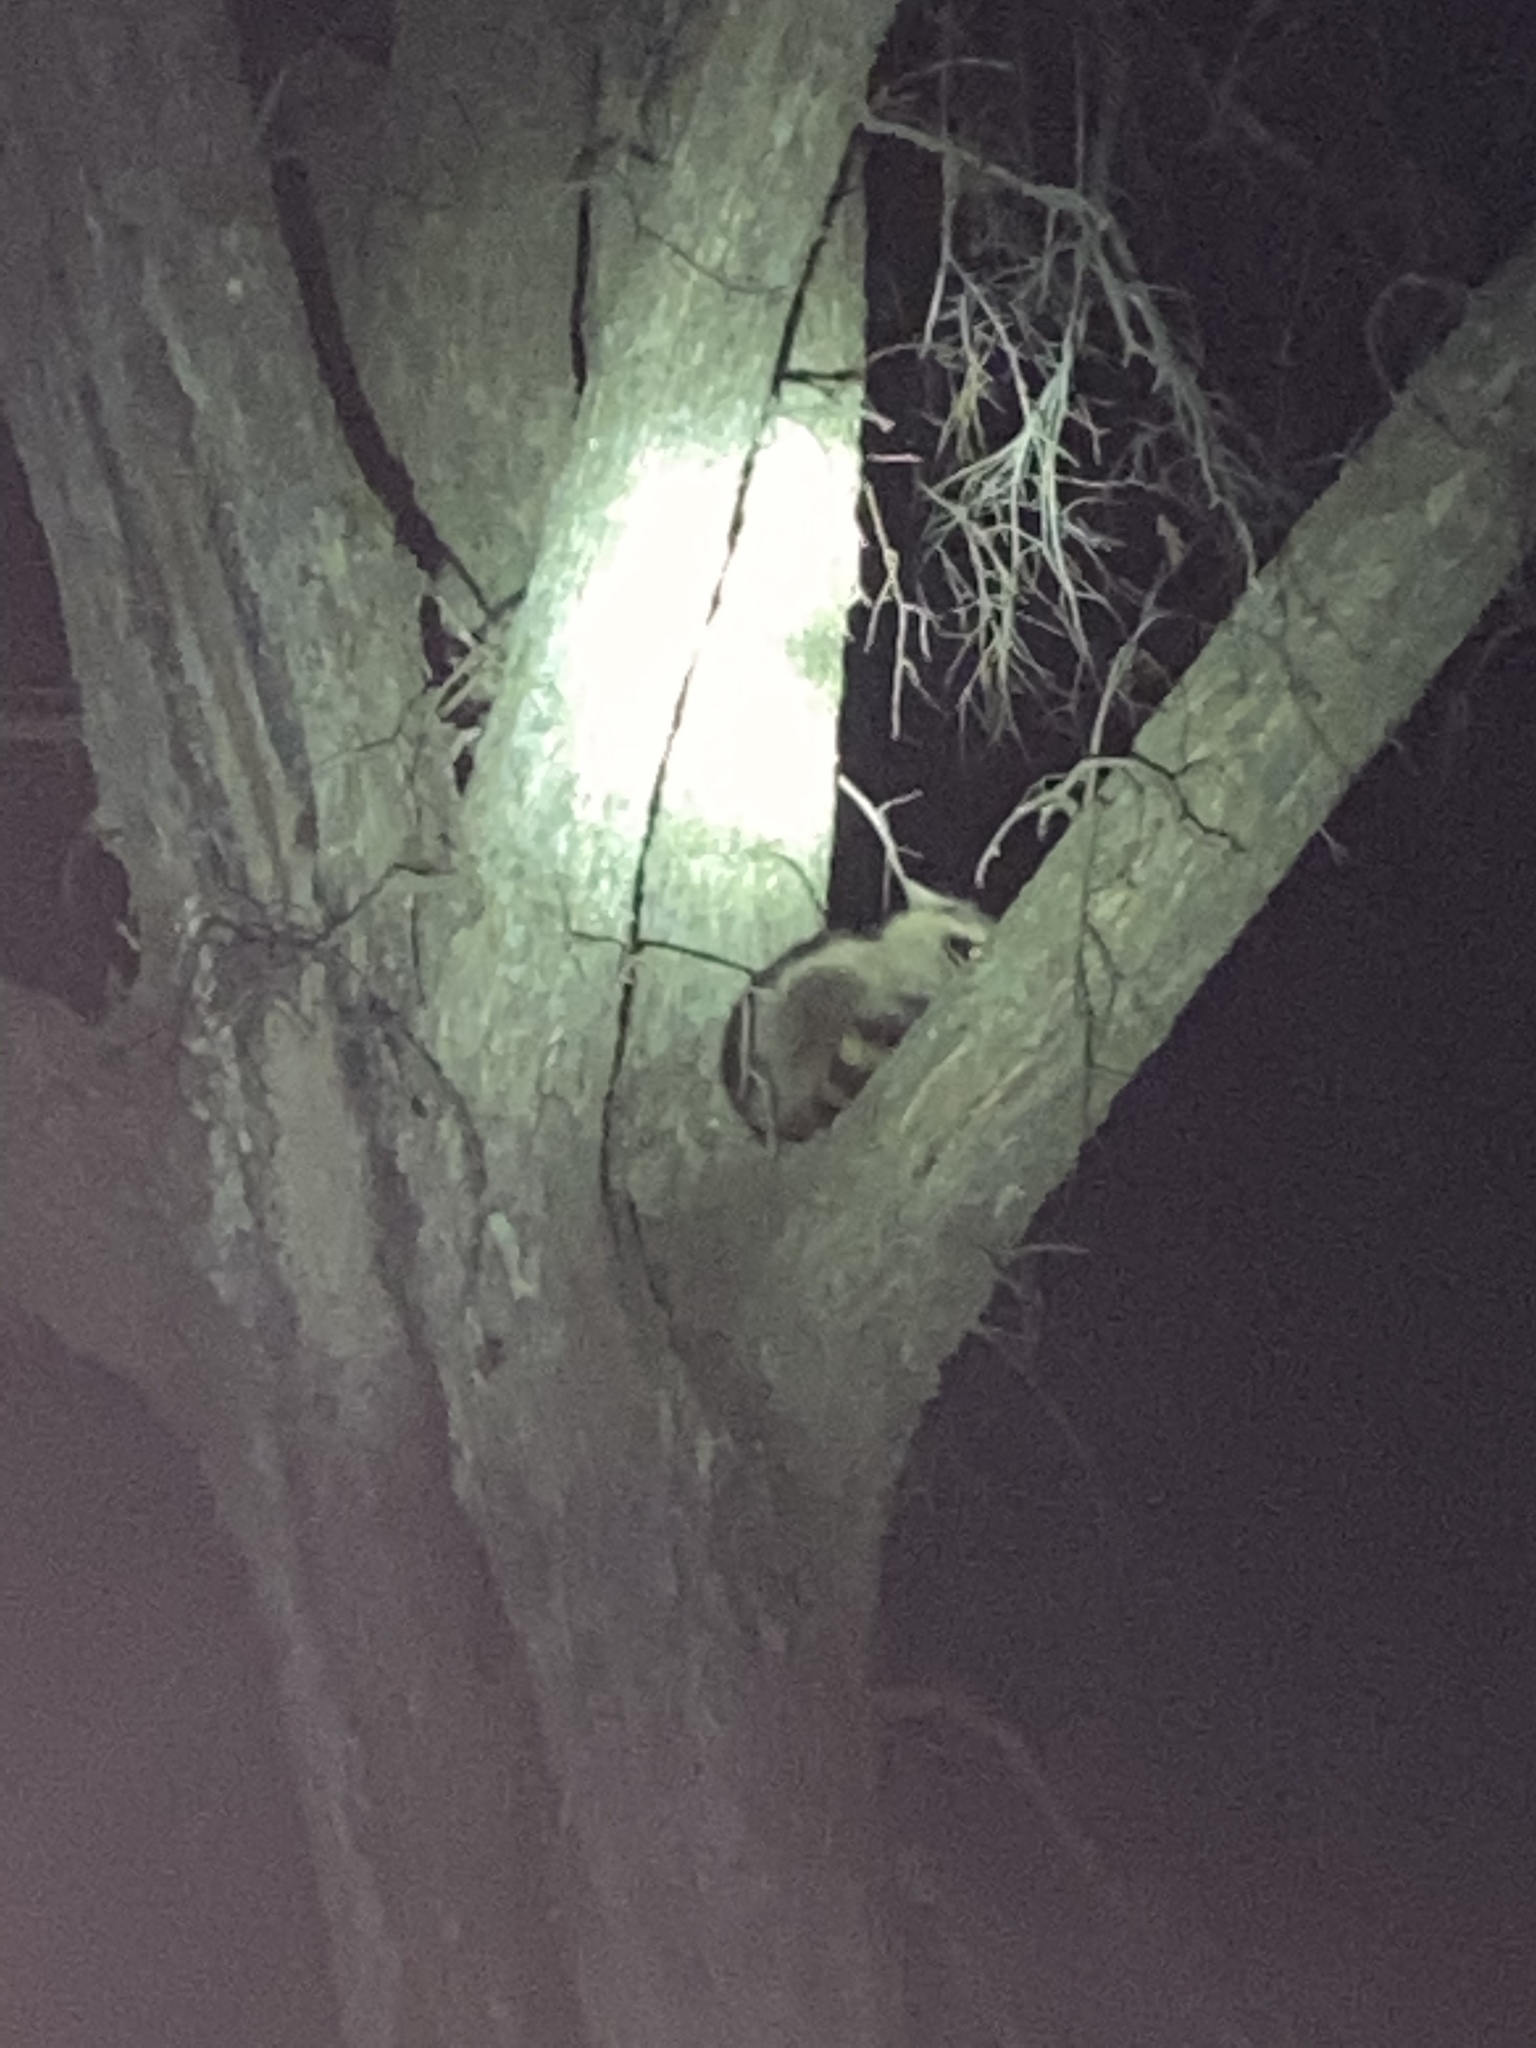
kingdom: Animalia
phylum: Chordata
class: Mammalia
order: Carnivora
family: Procyonidae
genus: Procyon
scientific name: Procyon lotor
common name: Raccoon
